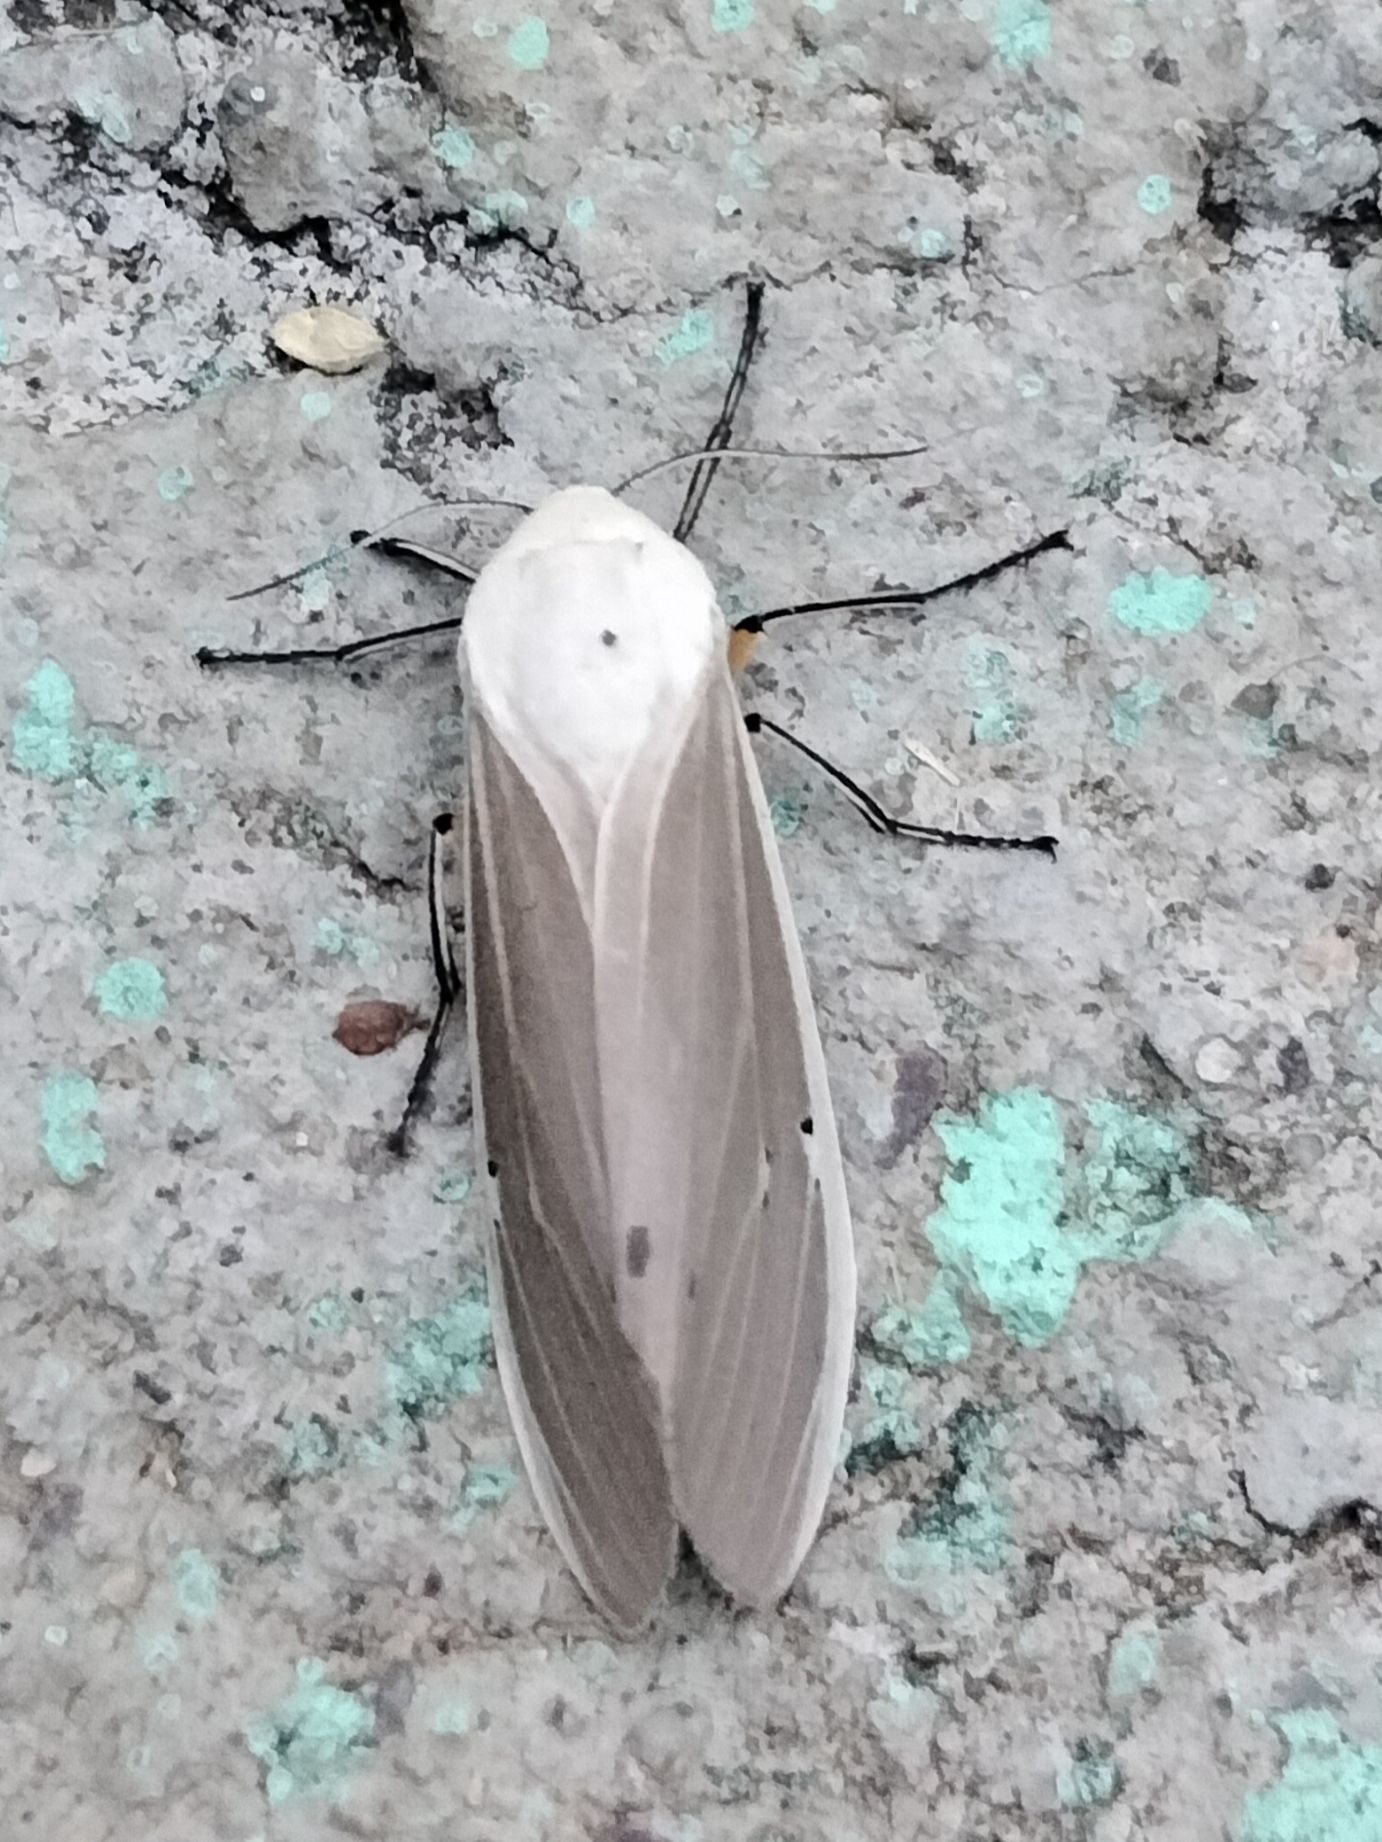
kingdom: Animalia
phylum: Arthropoda
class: Insecta
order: Lepidoptera
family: Erebidae
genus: Creatonotos
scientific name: Creatonotos transiens
